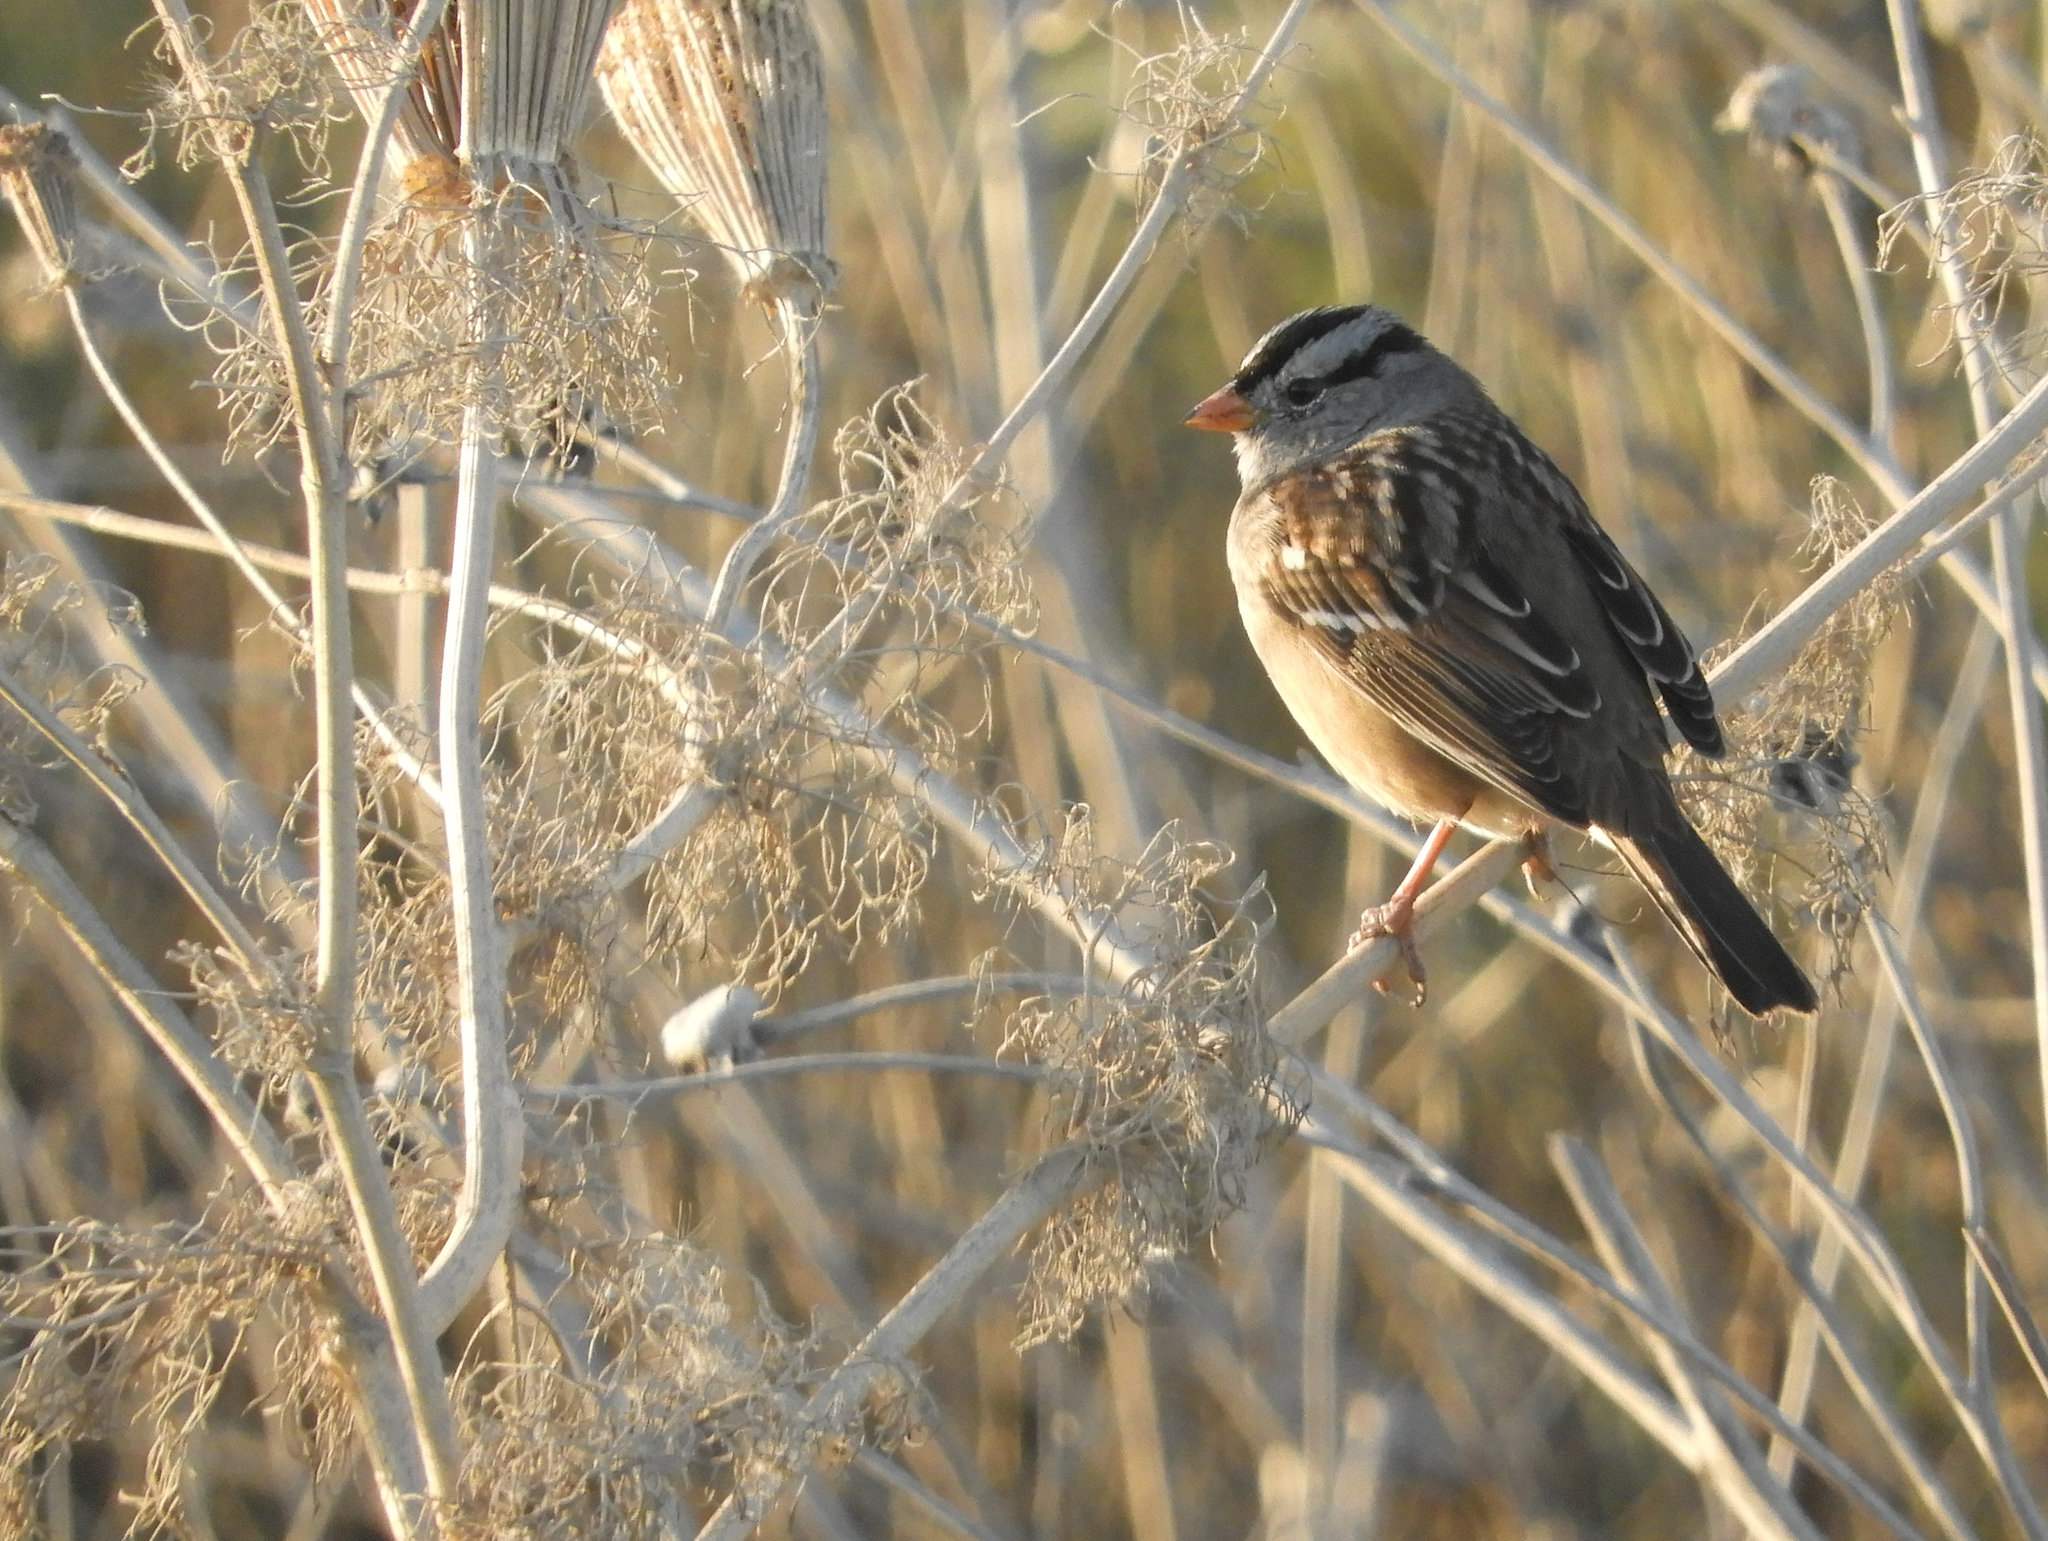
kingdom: Animalia
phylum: Chordata
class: Aves
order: Passeriformes
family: Passerellidae
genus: Zonotrichia
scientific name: Zonotrichia leucophrys
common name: White-crowned sparrow
